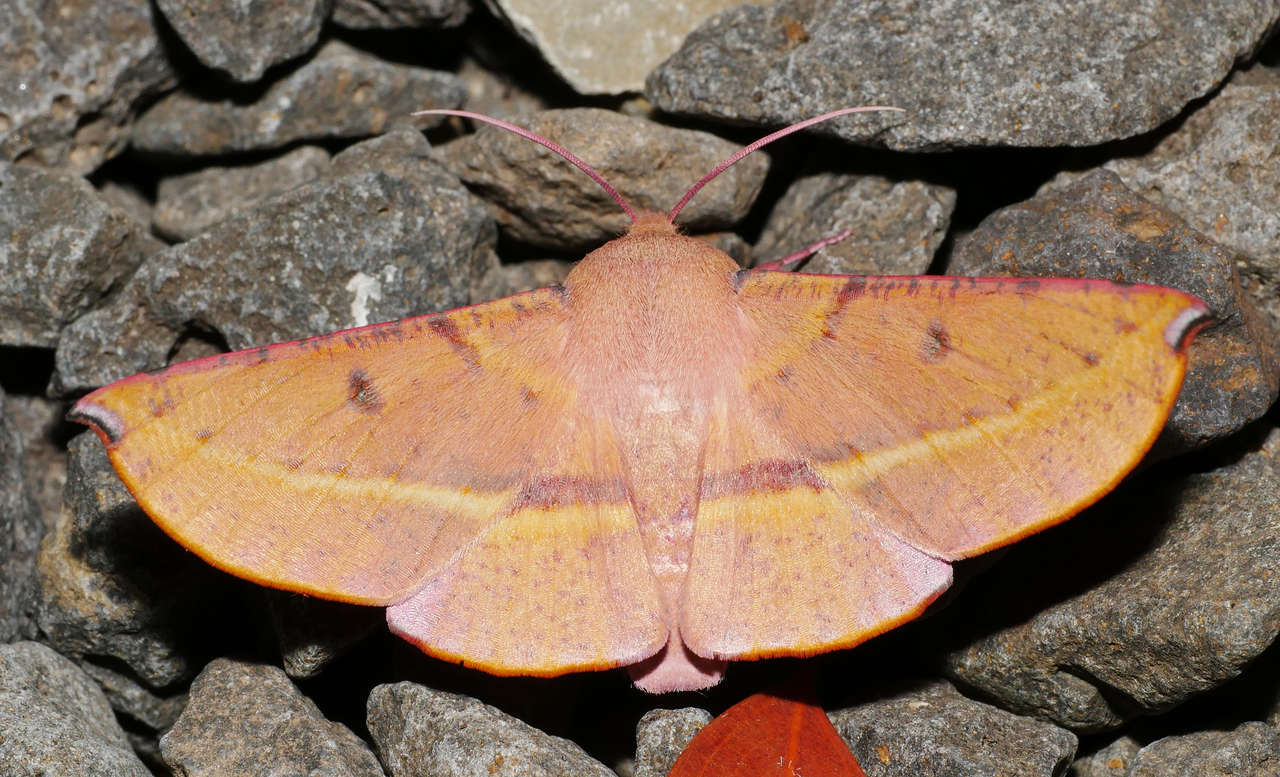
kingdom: Animalia
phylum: Arthropoda
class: Insecta
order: Lepidoptera
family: Geometridae
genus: Oenochroma
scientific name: Oenochroma vinaria
